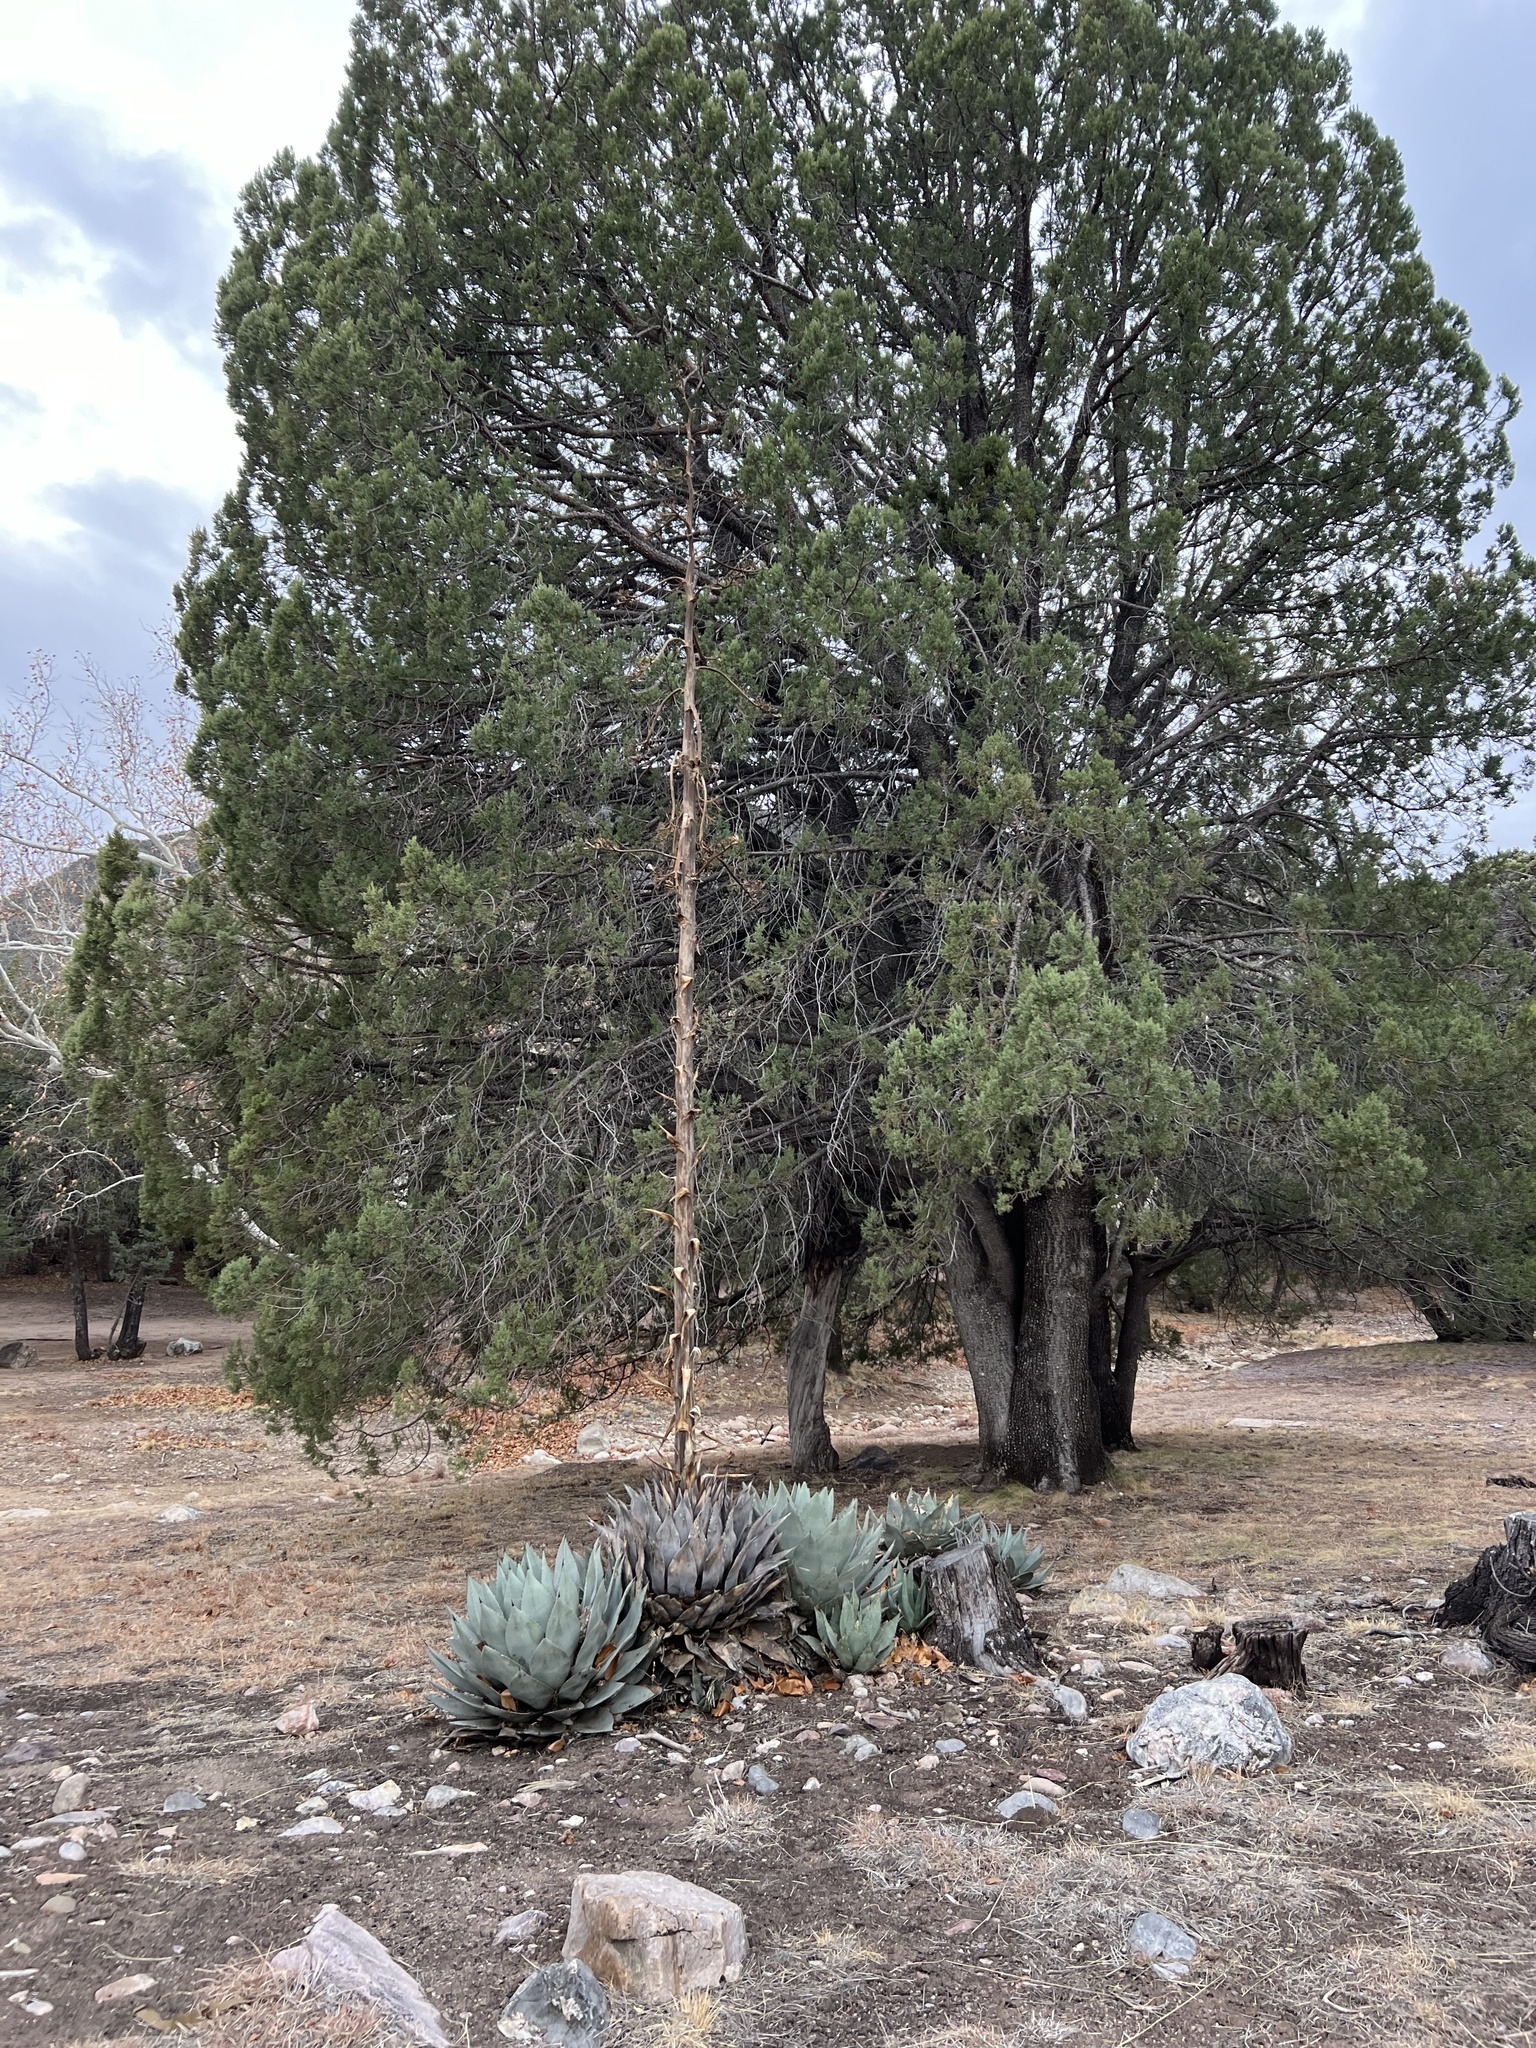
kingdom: Plantae
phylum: Tracheophyta
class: Liliopsida
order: Asparagales
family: Asparagaceae
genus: Agave
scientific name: Agave parryi
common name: Parry's agave
